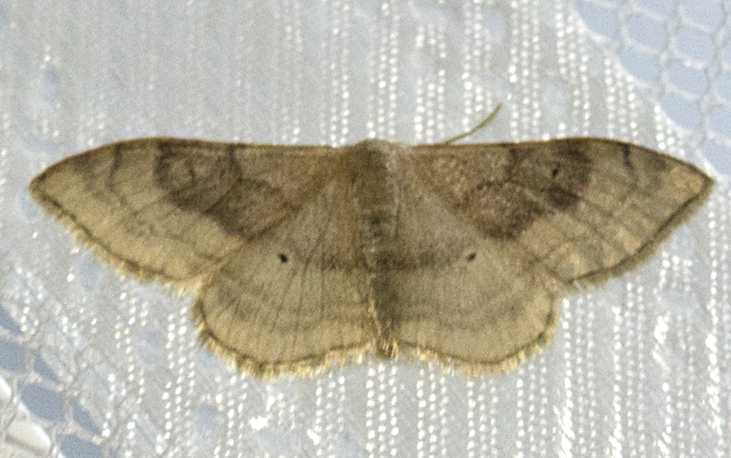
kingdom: Animalia
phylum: Arthropoda
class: Insecta
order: Lepidoptera
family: Geometridae
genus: Idaea
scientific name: Idaea degeneraria
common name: Portland ribbon wave
